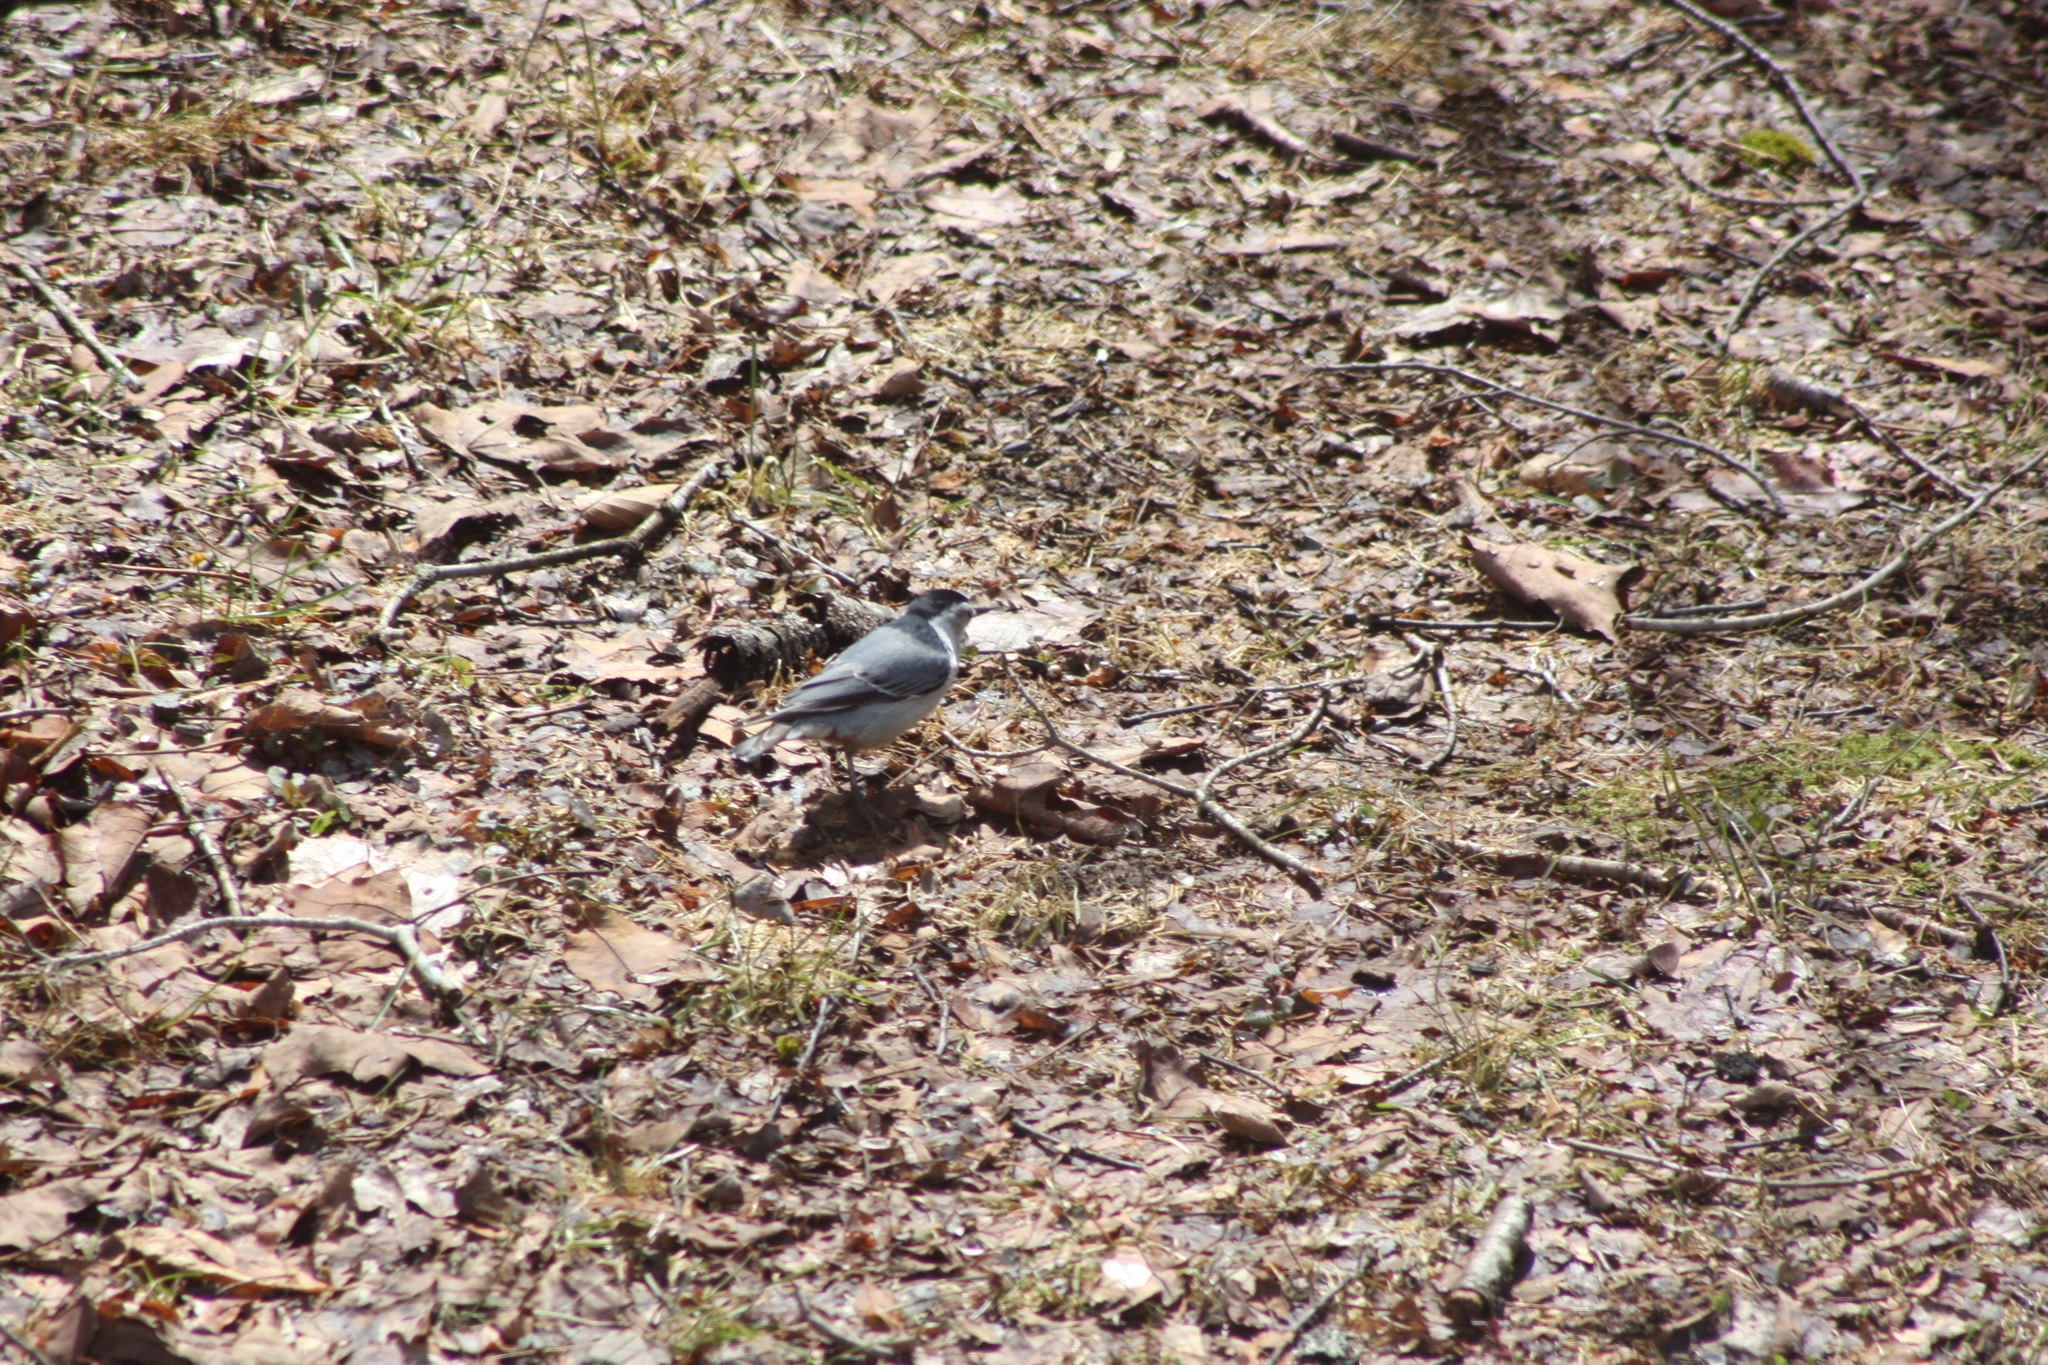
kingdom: Animalia
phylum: Chordata
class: Aves
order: Passeriformes
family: Sittidae
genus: Sitta
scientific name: Sitta carolinensis
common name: White-breasted nuthatch
